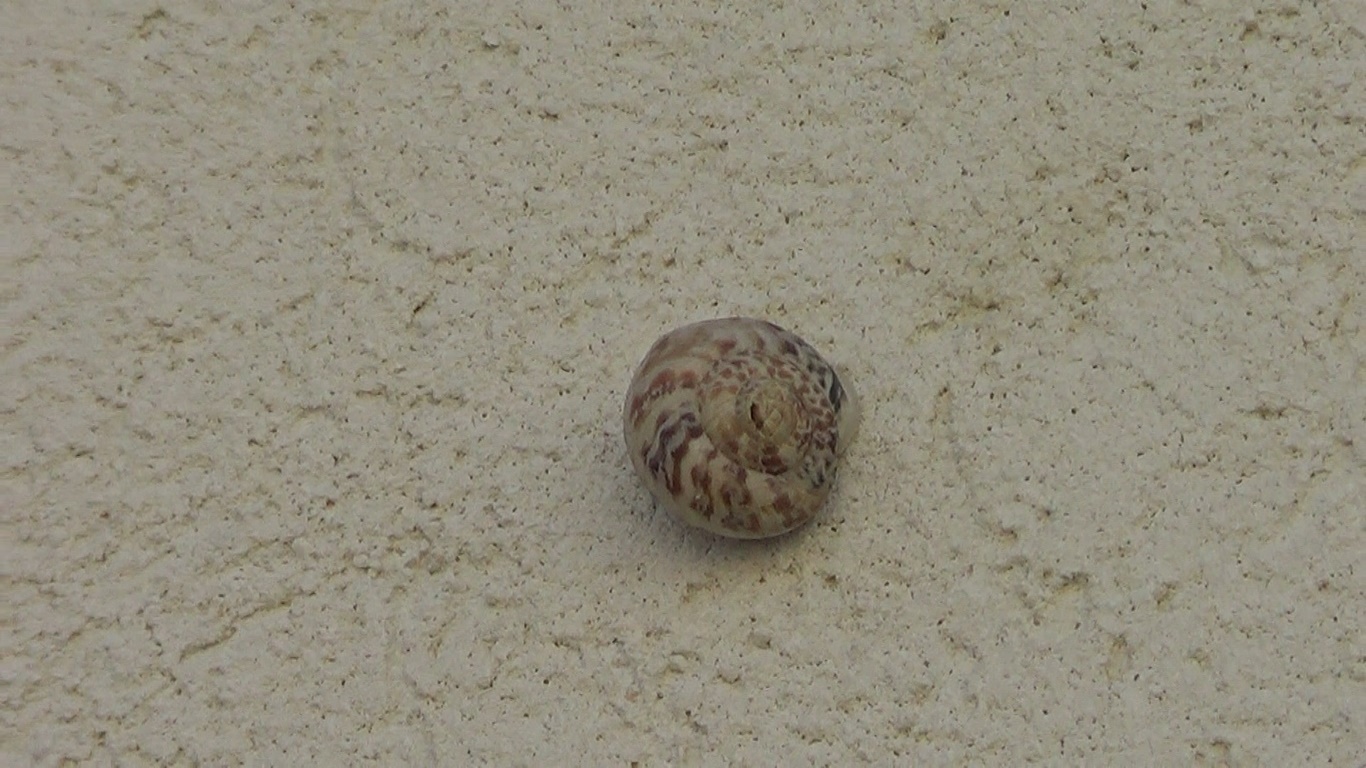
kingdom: Animalia
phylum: Mollusca
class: Gastropoda
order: Stylommatophora
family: Helicidae
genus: Marmorana
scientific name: Marmorana muralis
